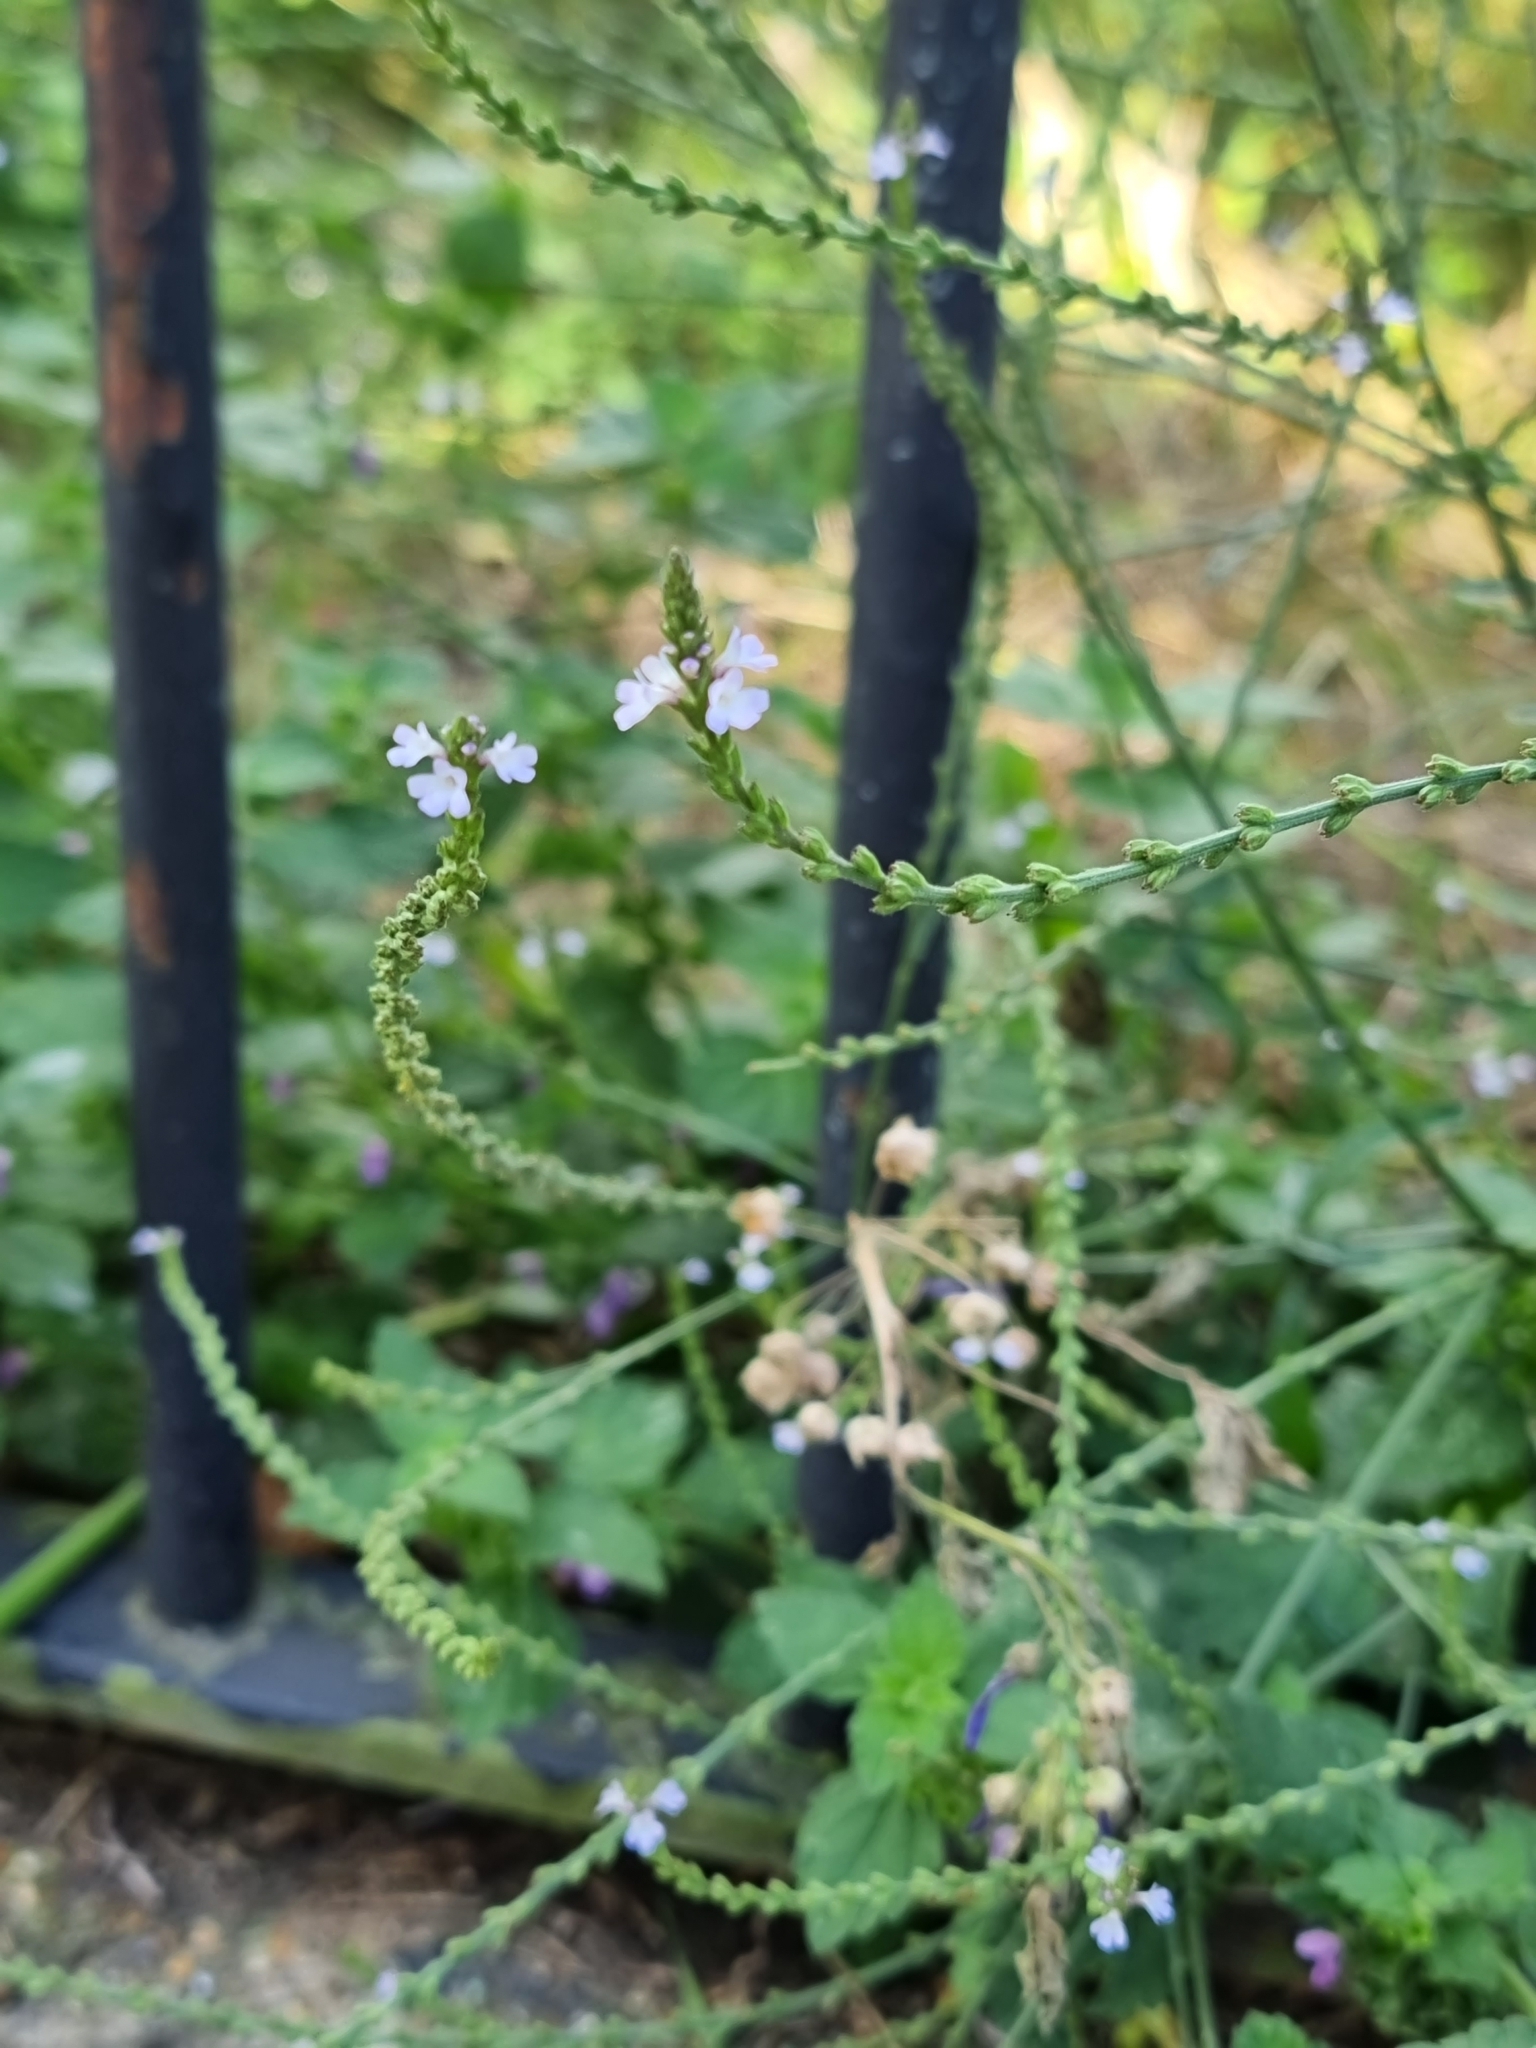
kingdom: Plantae
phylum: Tracheophyta
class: Magnoliopsida
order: Lamiales
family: Verbenaceae
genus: Verbena
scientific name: Verbena officinalis
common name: Vervain
